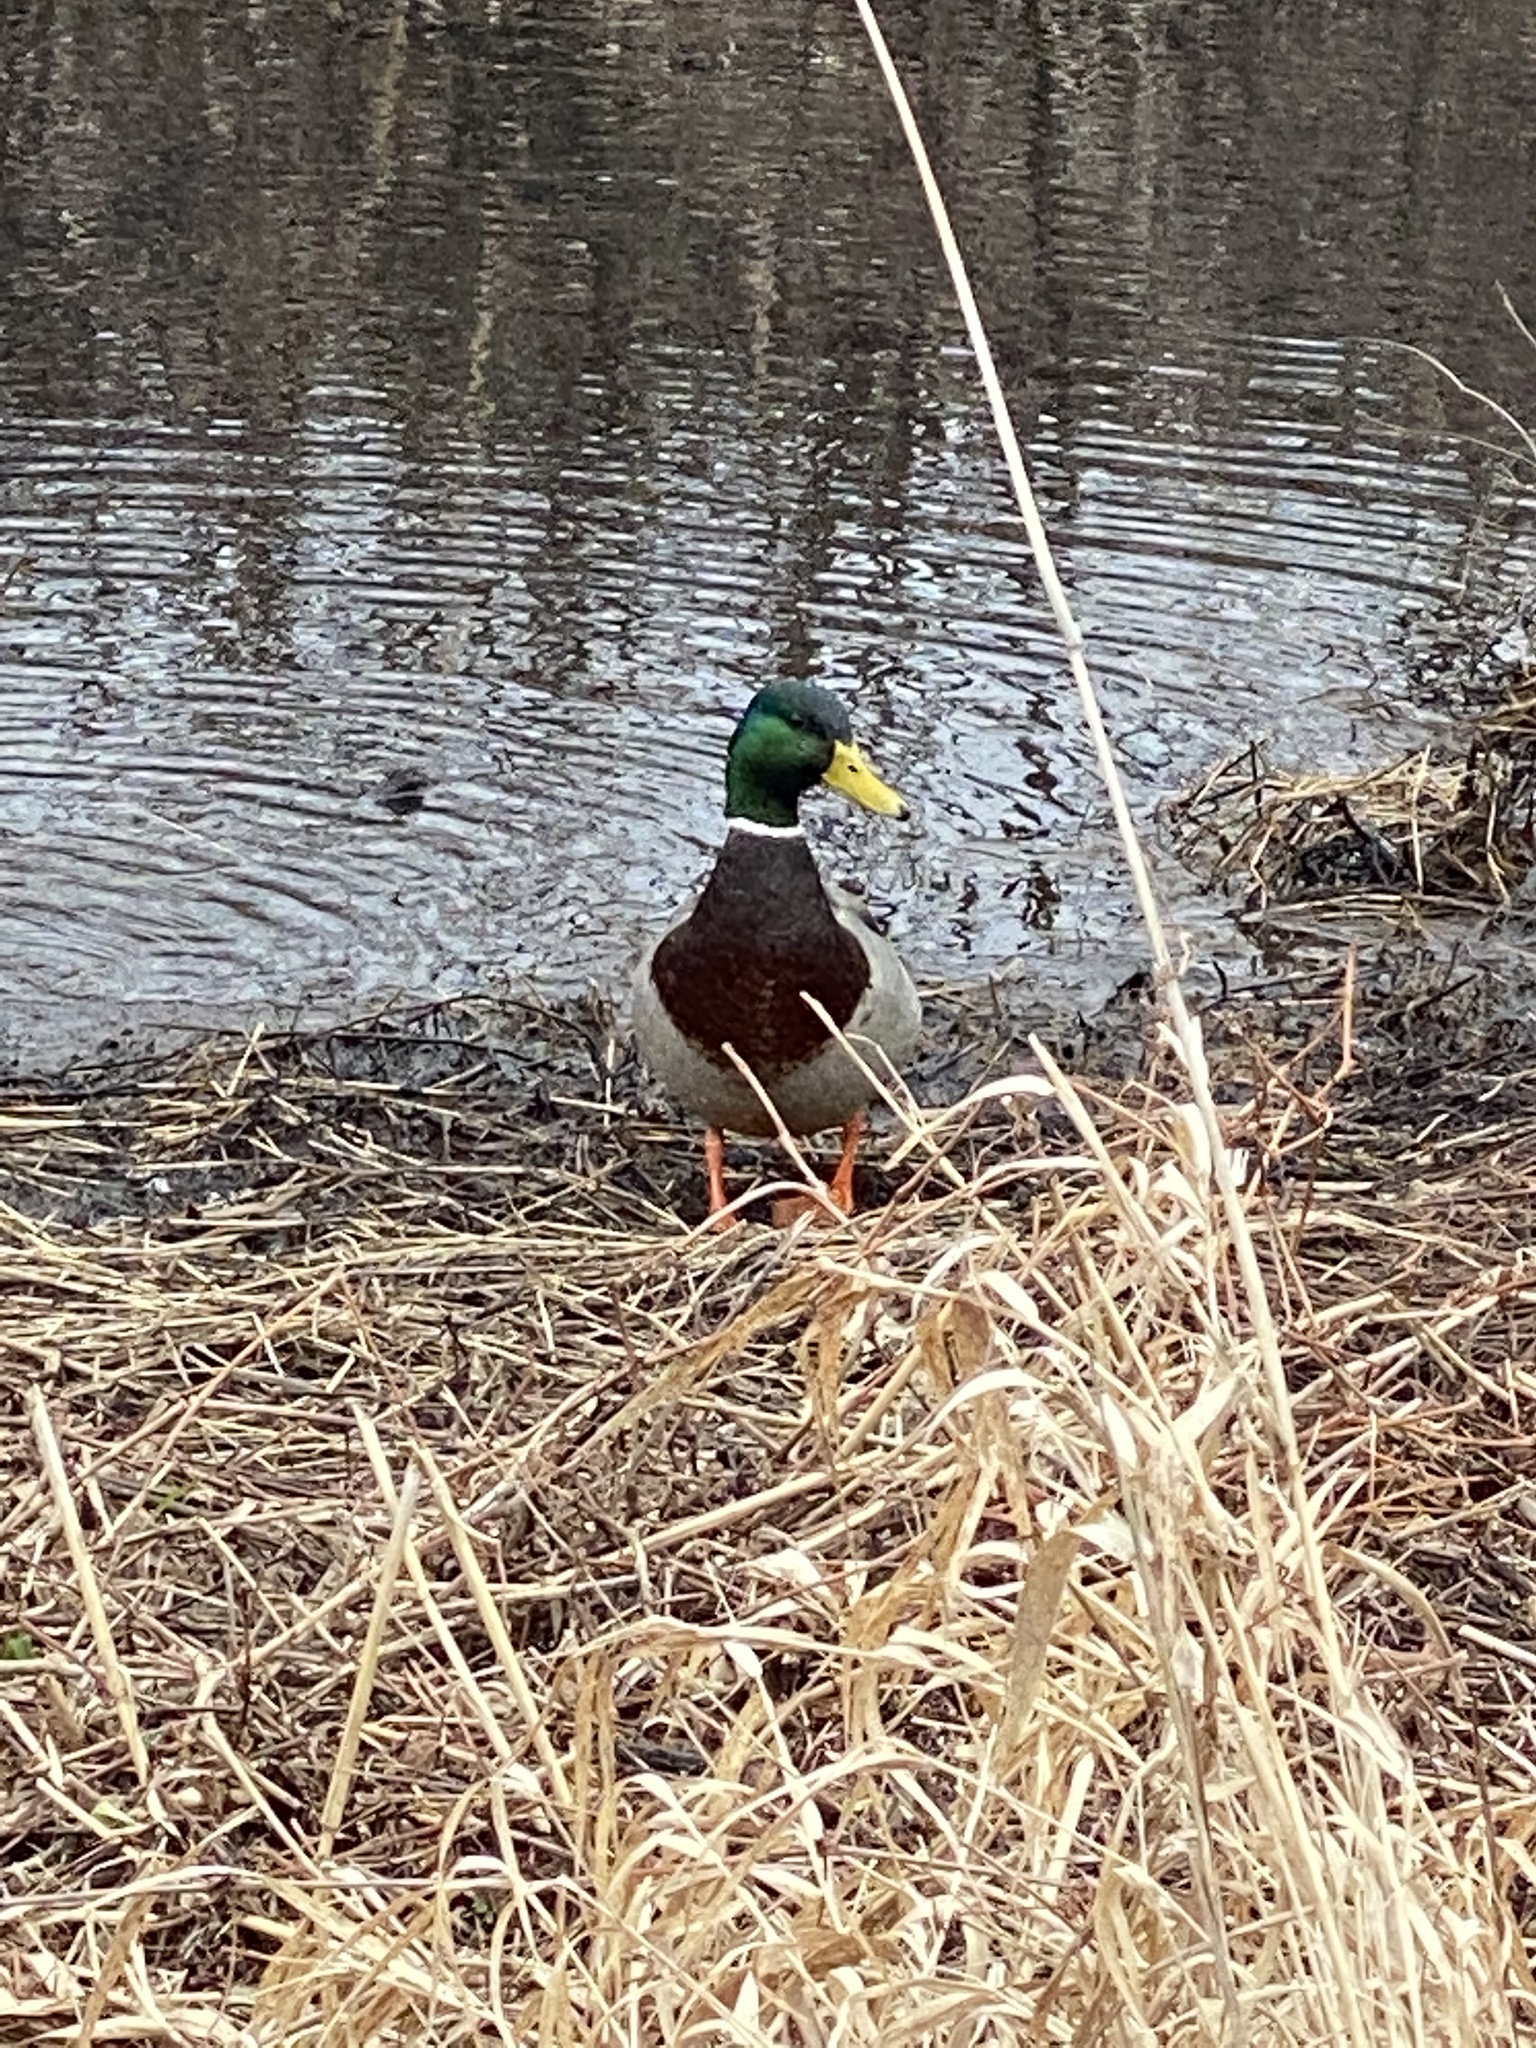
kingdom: Animalia
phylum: Chordata
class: Aves
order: Anseriformes
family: Anatidae
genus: Anas
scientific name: Anas platyrhynchos
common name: Mallard
